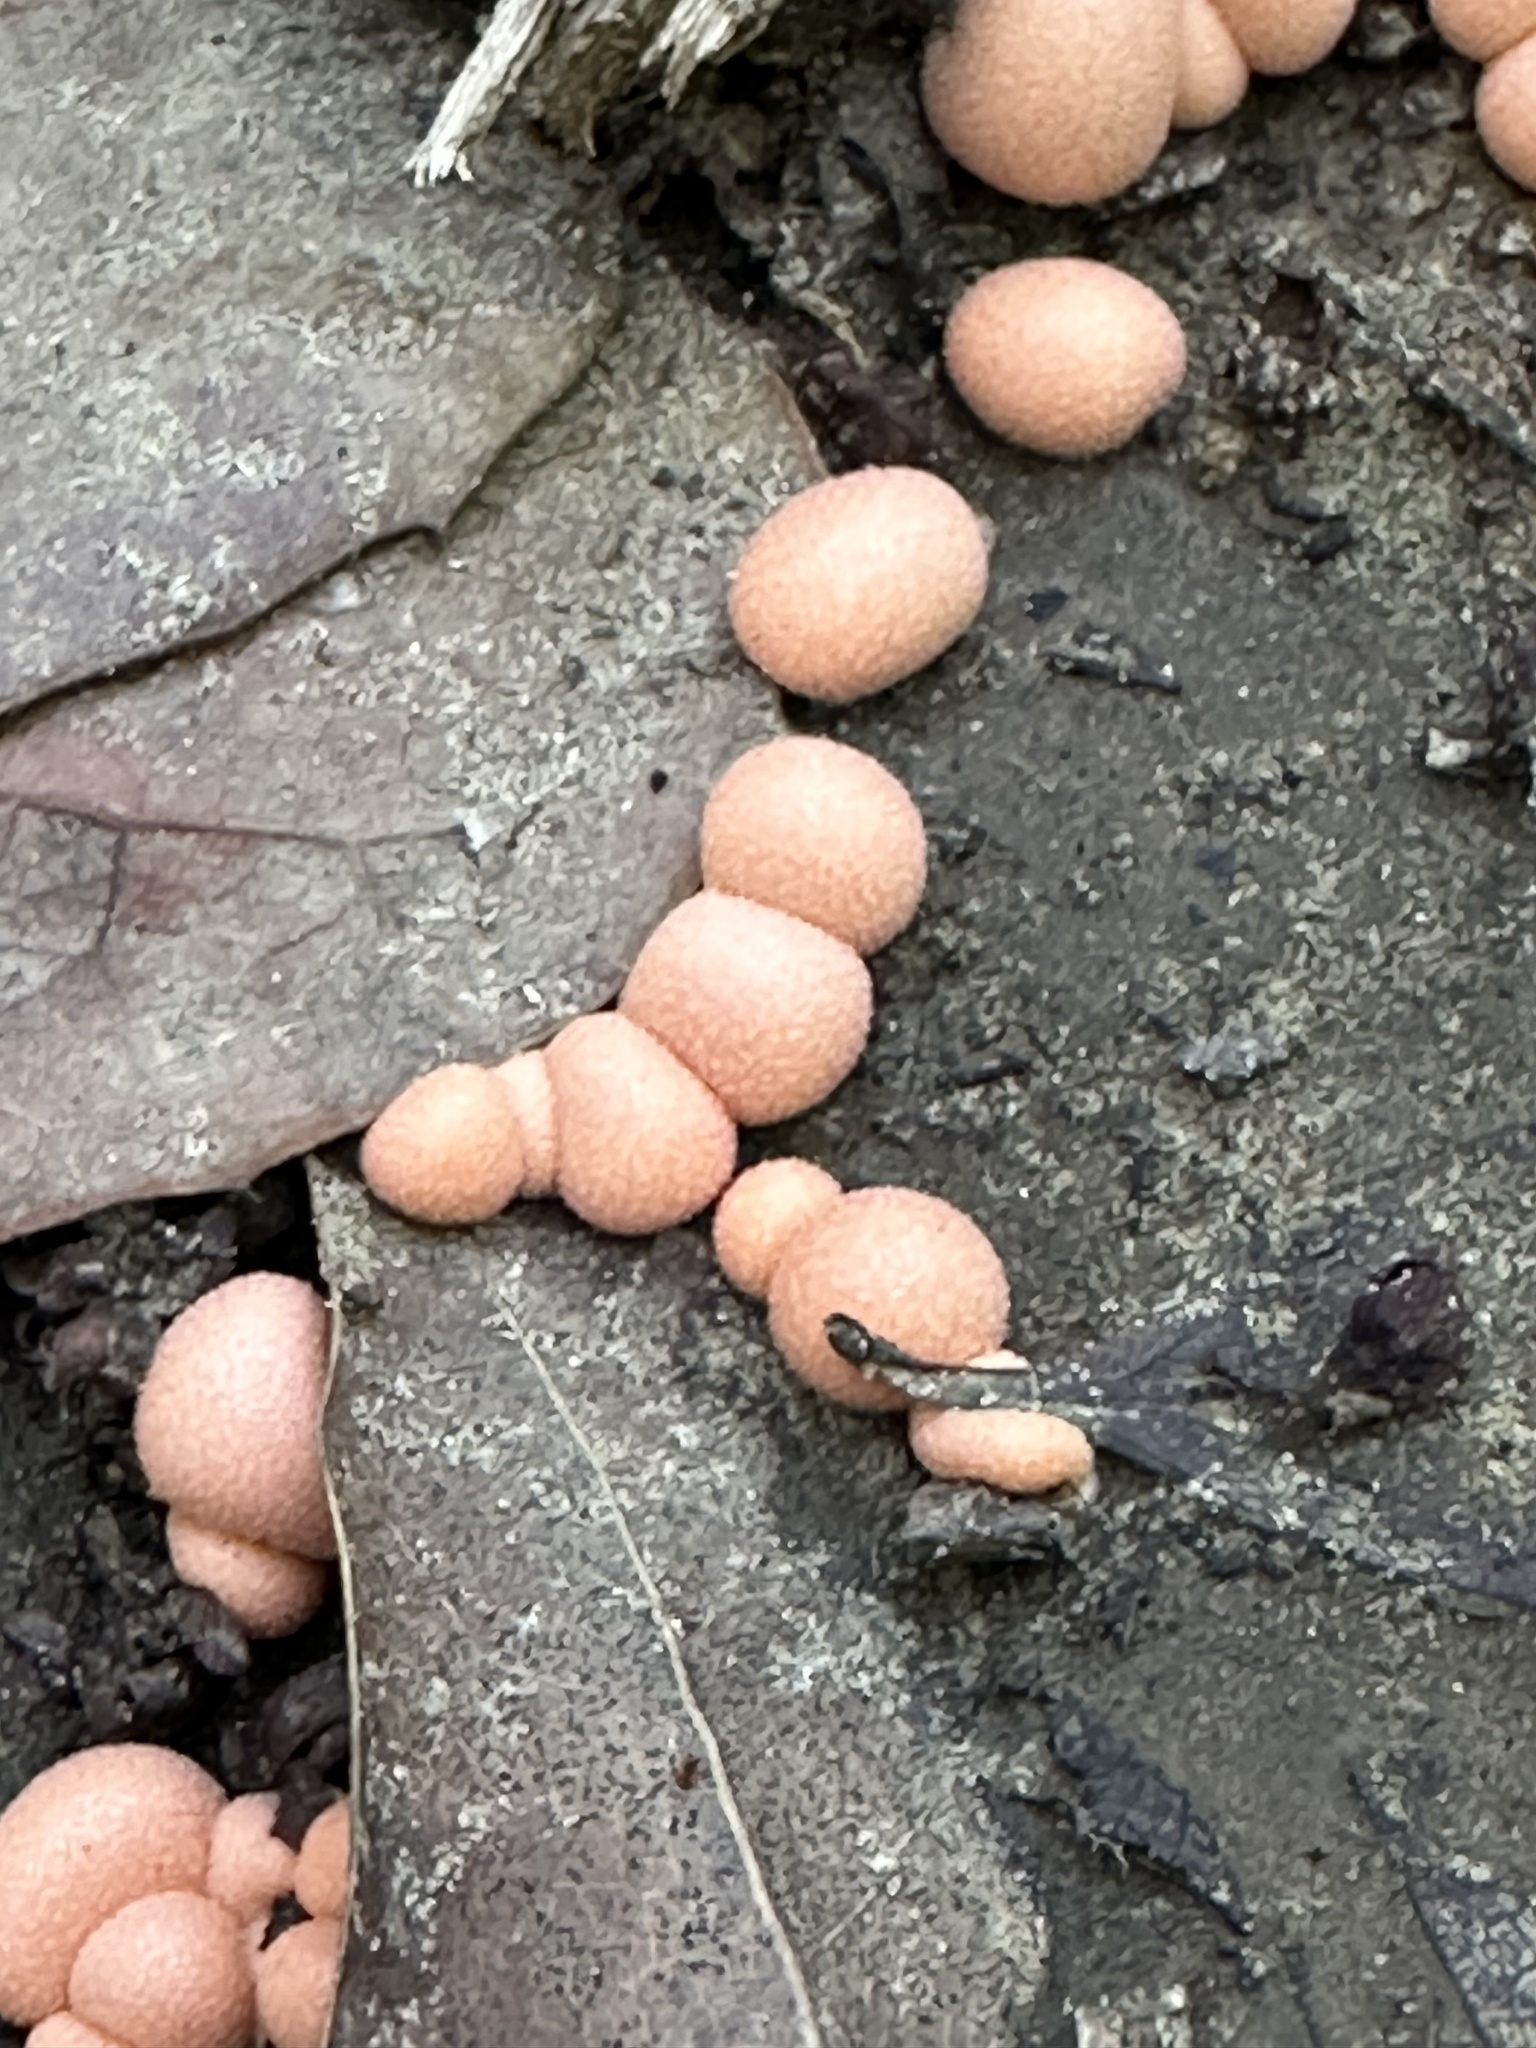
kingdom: Protozoa
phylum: Mycetozoa
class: Myxomycetes
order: Cribrariales
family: Tubiferaceae
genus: Lycogala
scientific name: Lycogala epidendrum
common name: Wolf's milk
